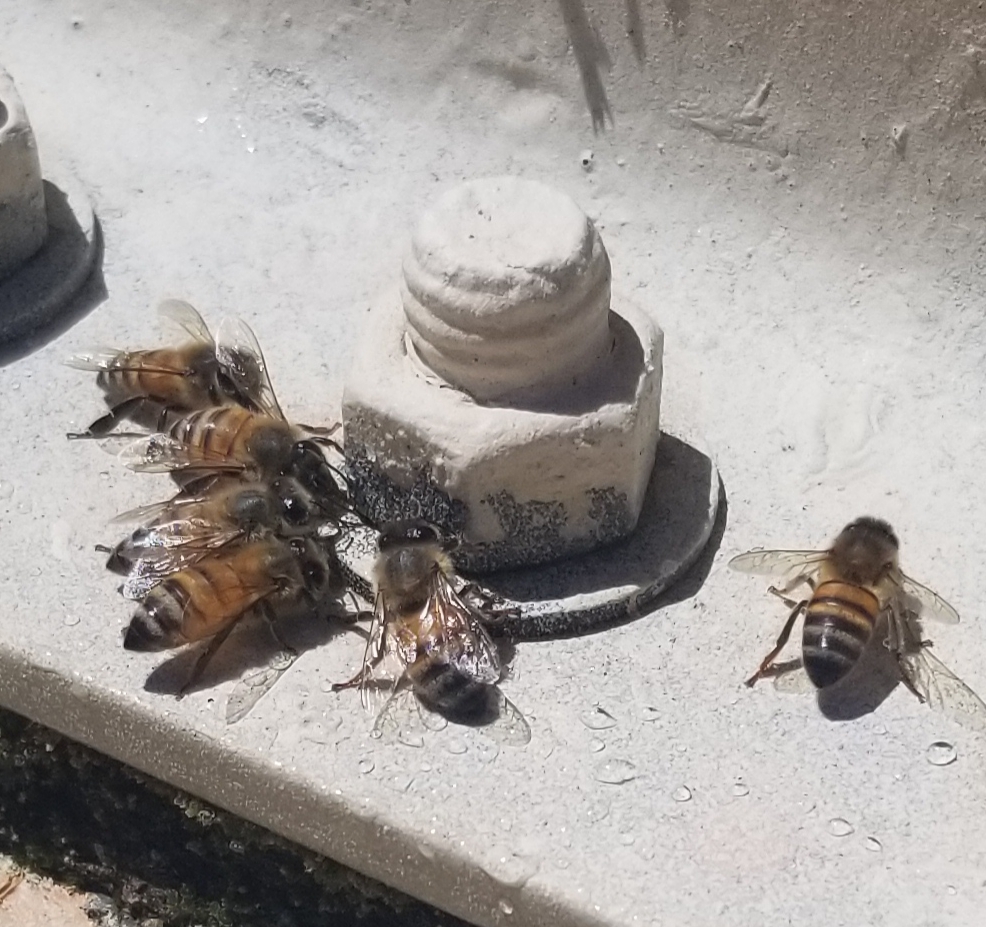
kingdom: Animalia
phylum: Arthropoda
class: Insecta
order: Hymenoptera
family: Apidae
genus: Apis
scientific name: Apis mellifera
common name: Honey bee
